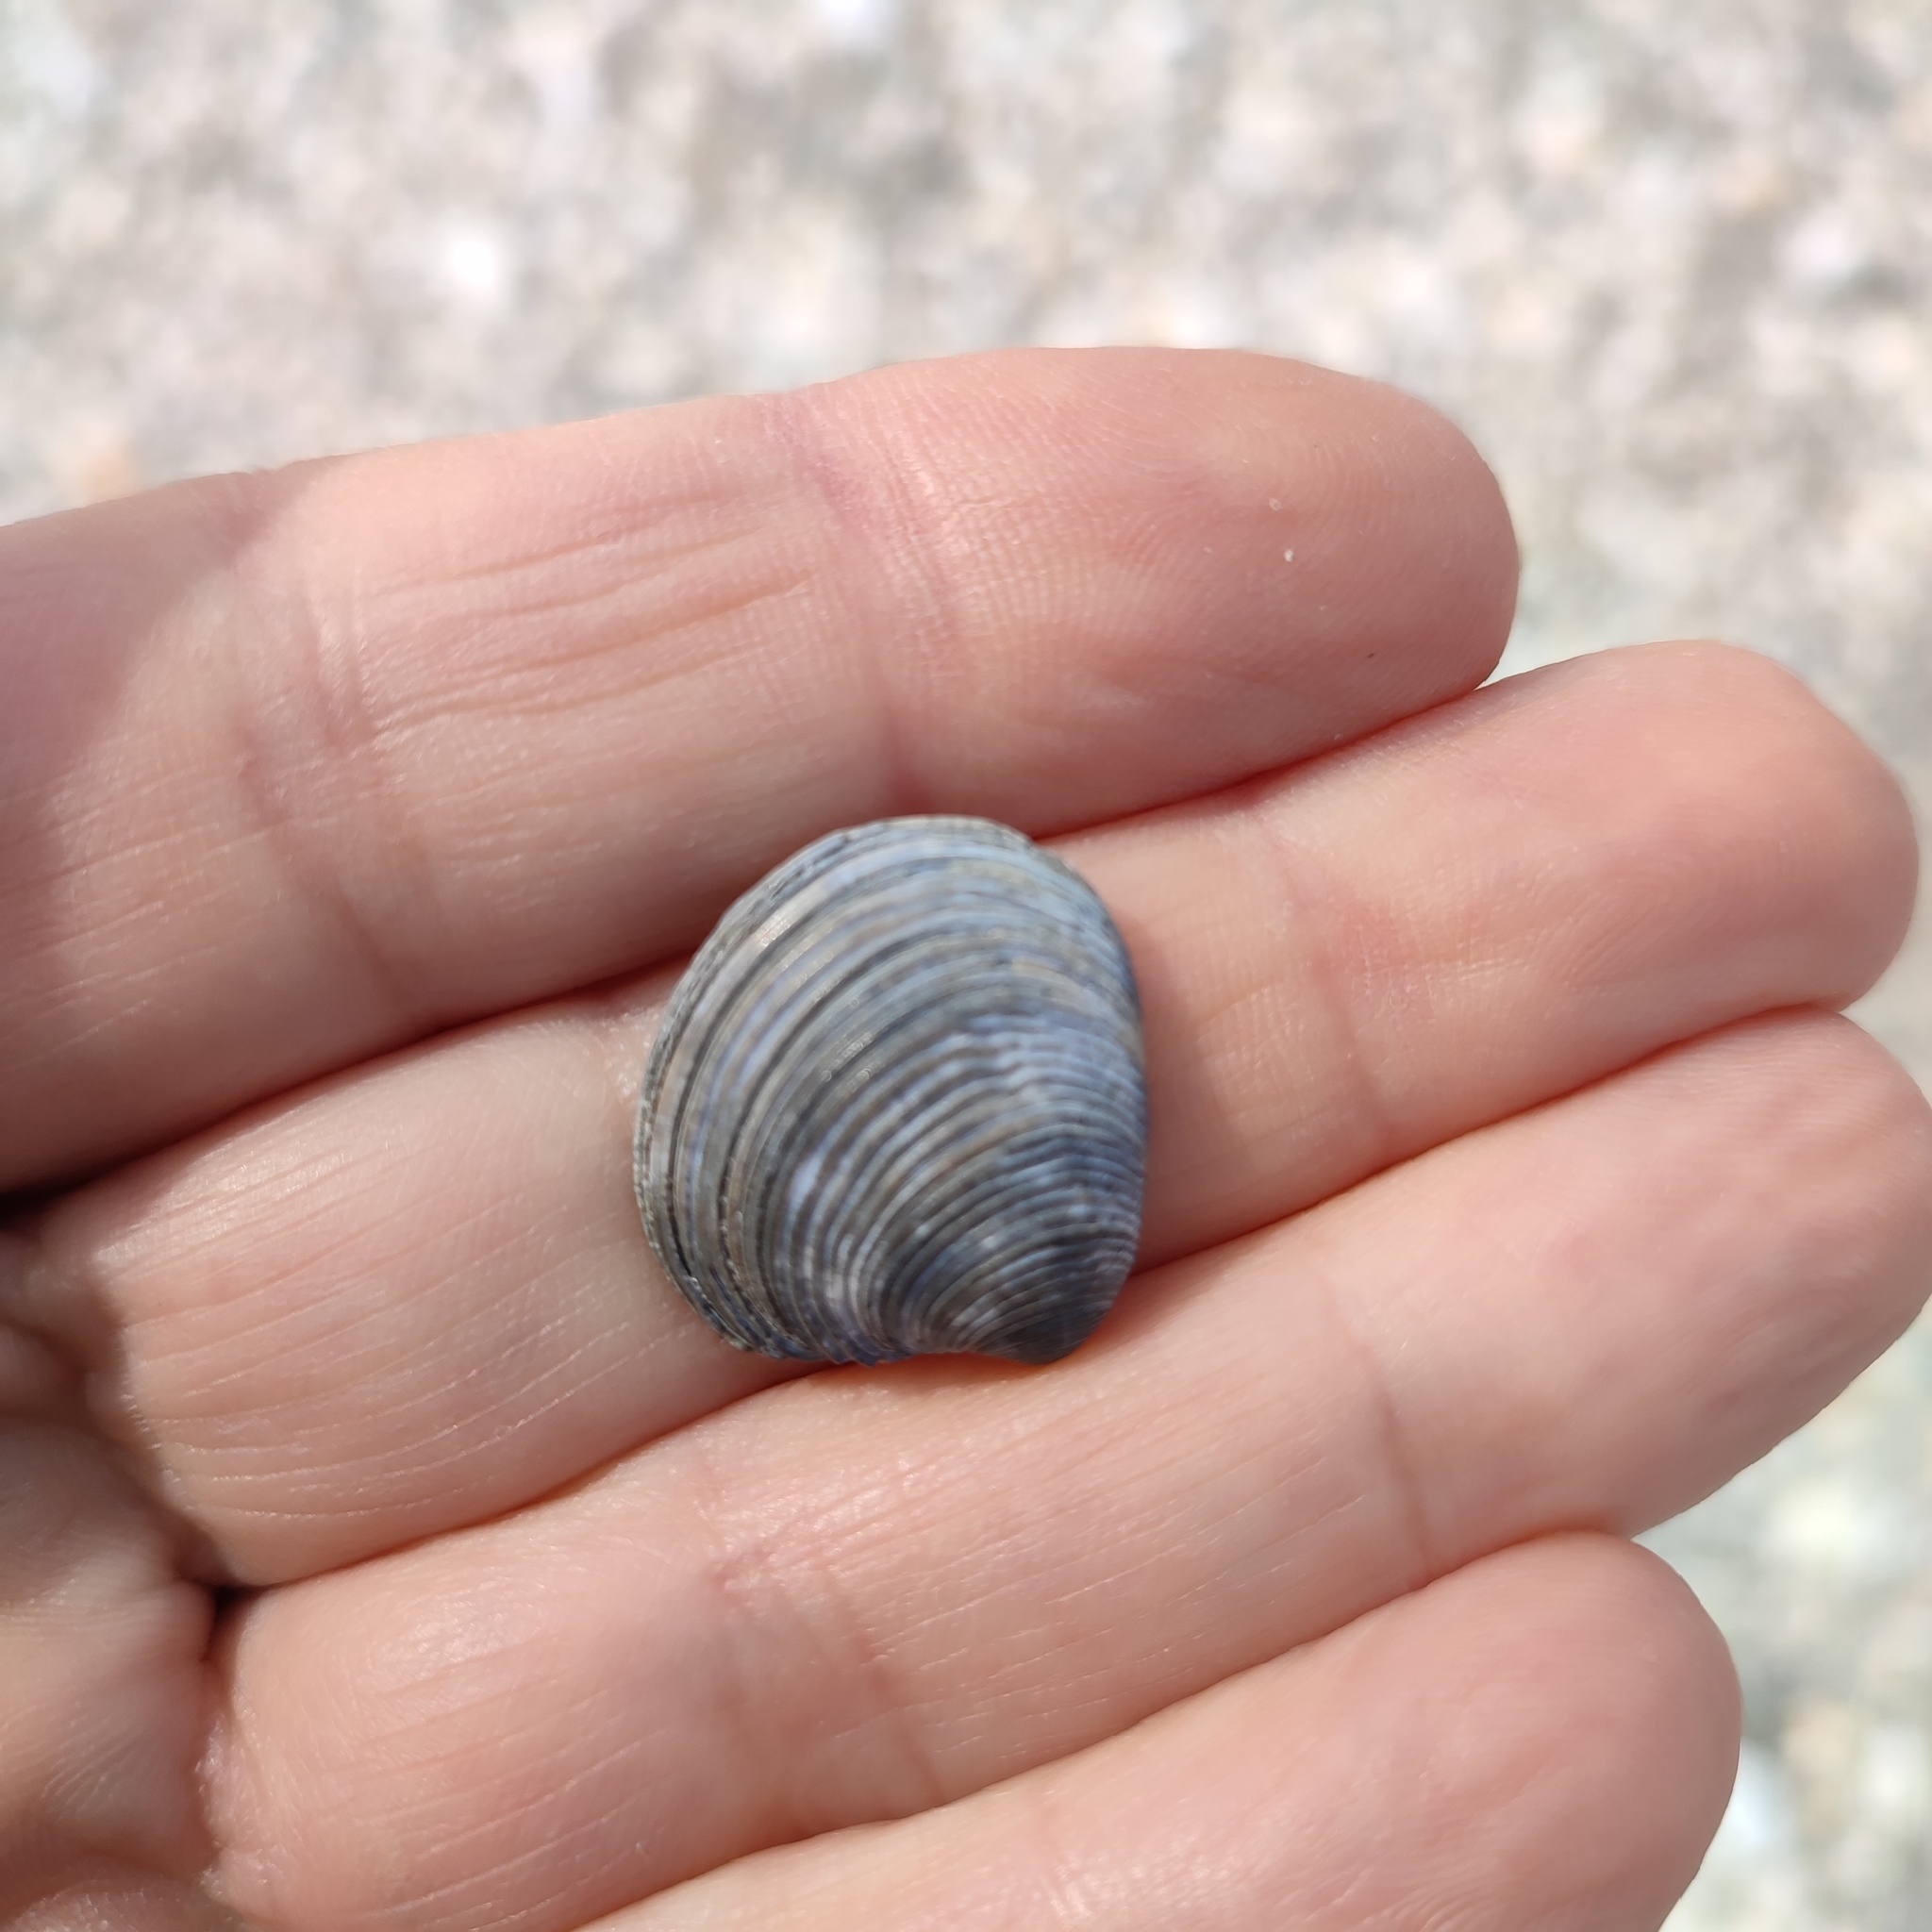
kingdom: Animalia
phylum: Mollusca
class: Bivalvia
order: Venerida
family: Veneridae
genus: Chamelea
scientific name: Chamelea gallina
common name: Chicken venus
